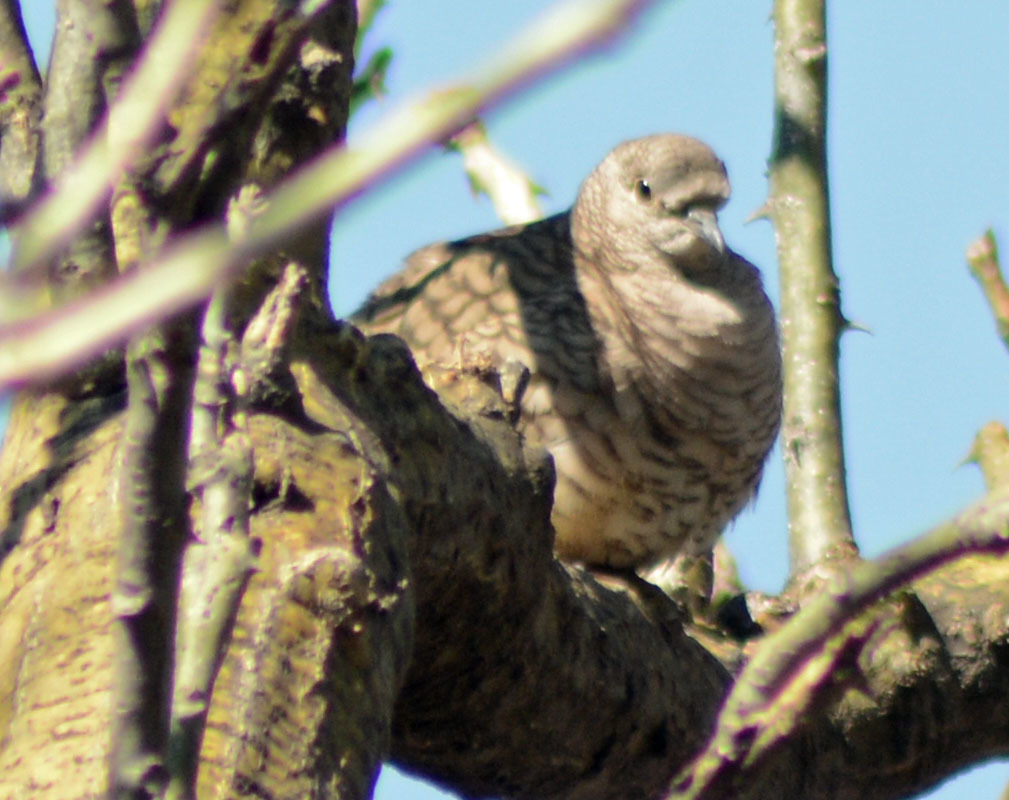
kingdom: Animalia
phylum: Chordata
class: Aves
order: Columbiformes
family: Columbidae
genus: Columbina
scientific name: Columbina inca
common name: Inca dove
